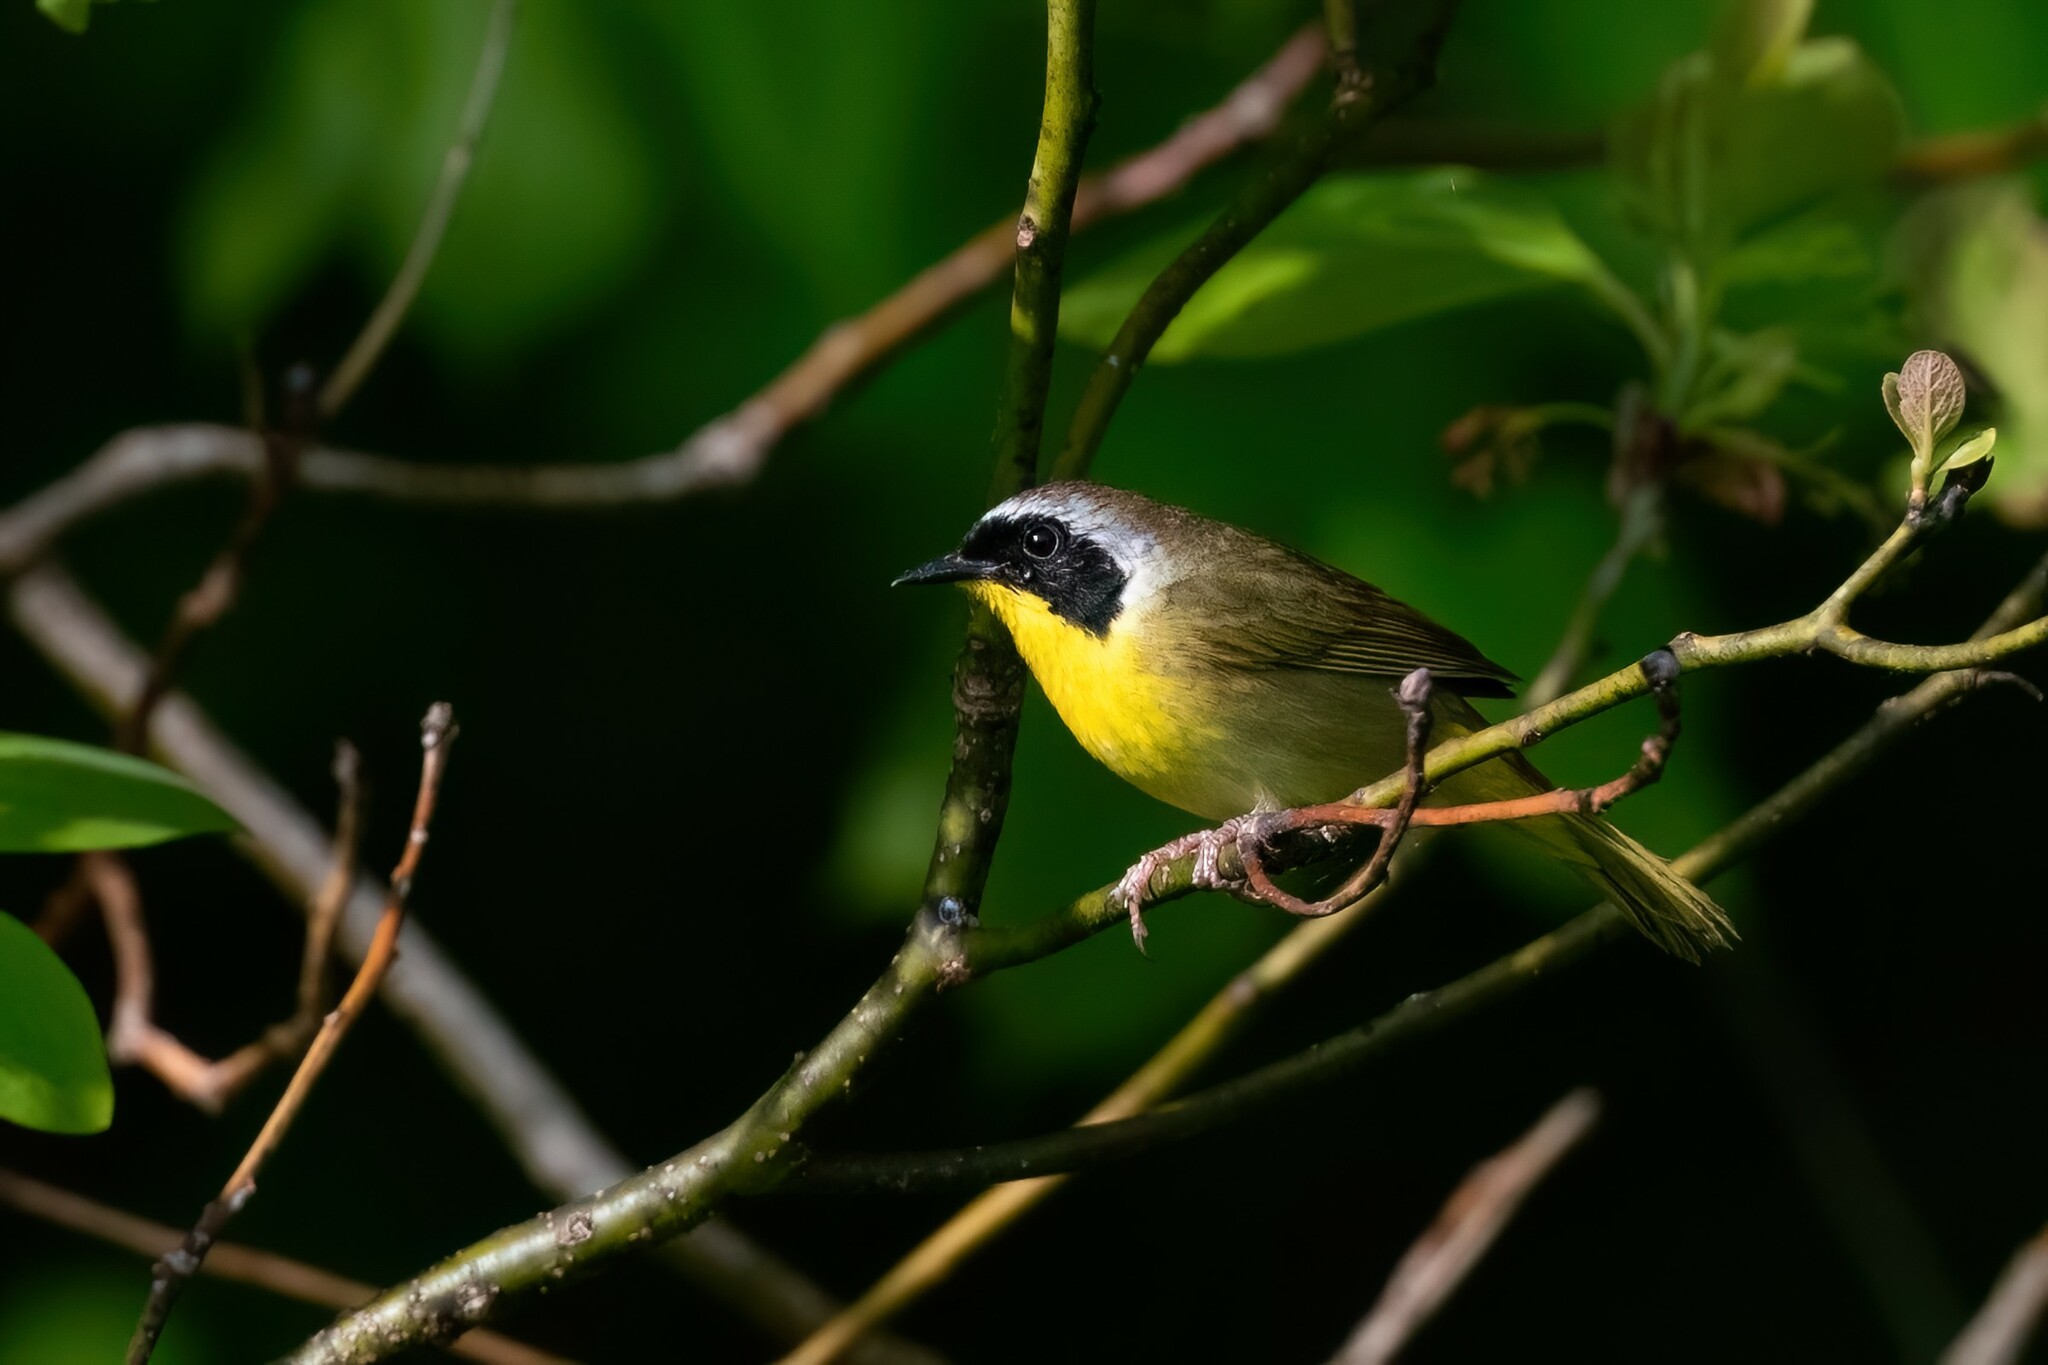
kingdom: Animalia
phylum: Chordata
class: Aves
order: Passeriformes
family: Parulidae
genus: Geothlypis
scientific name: Geothlypis trichas
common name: Common yellowthroat
